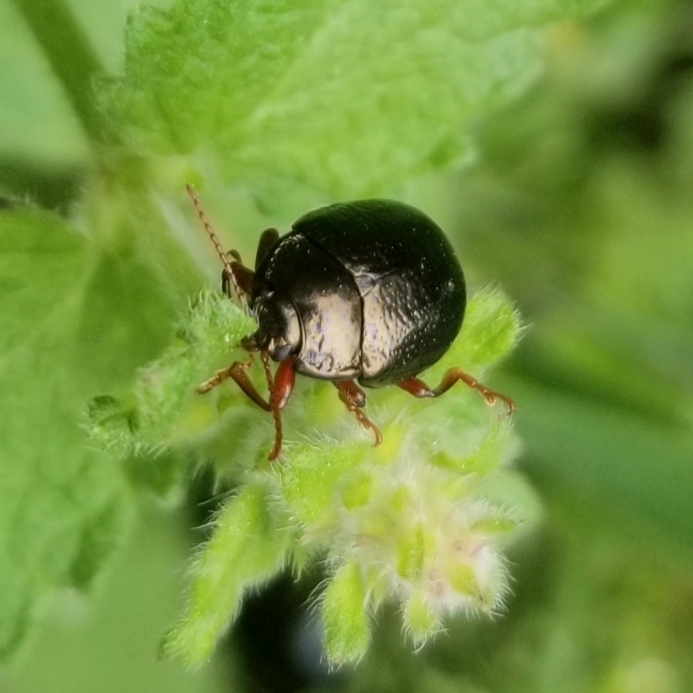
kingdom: Animalia
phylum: Arthropoda
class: Insecta
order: Coleoptera
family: Chrysomelidae
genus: Chrysolina
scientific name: Chrysolina bankii
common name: Leaf beetle
